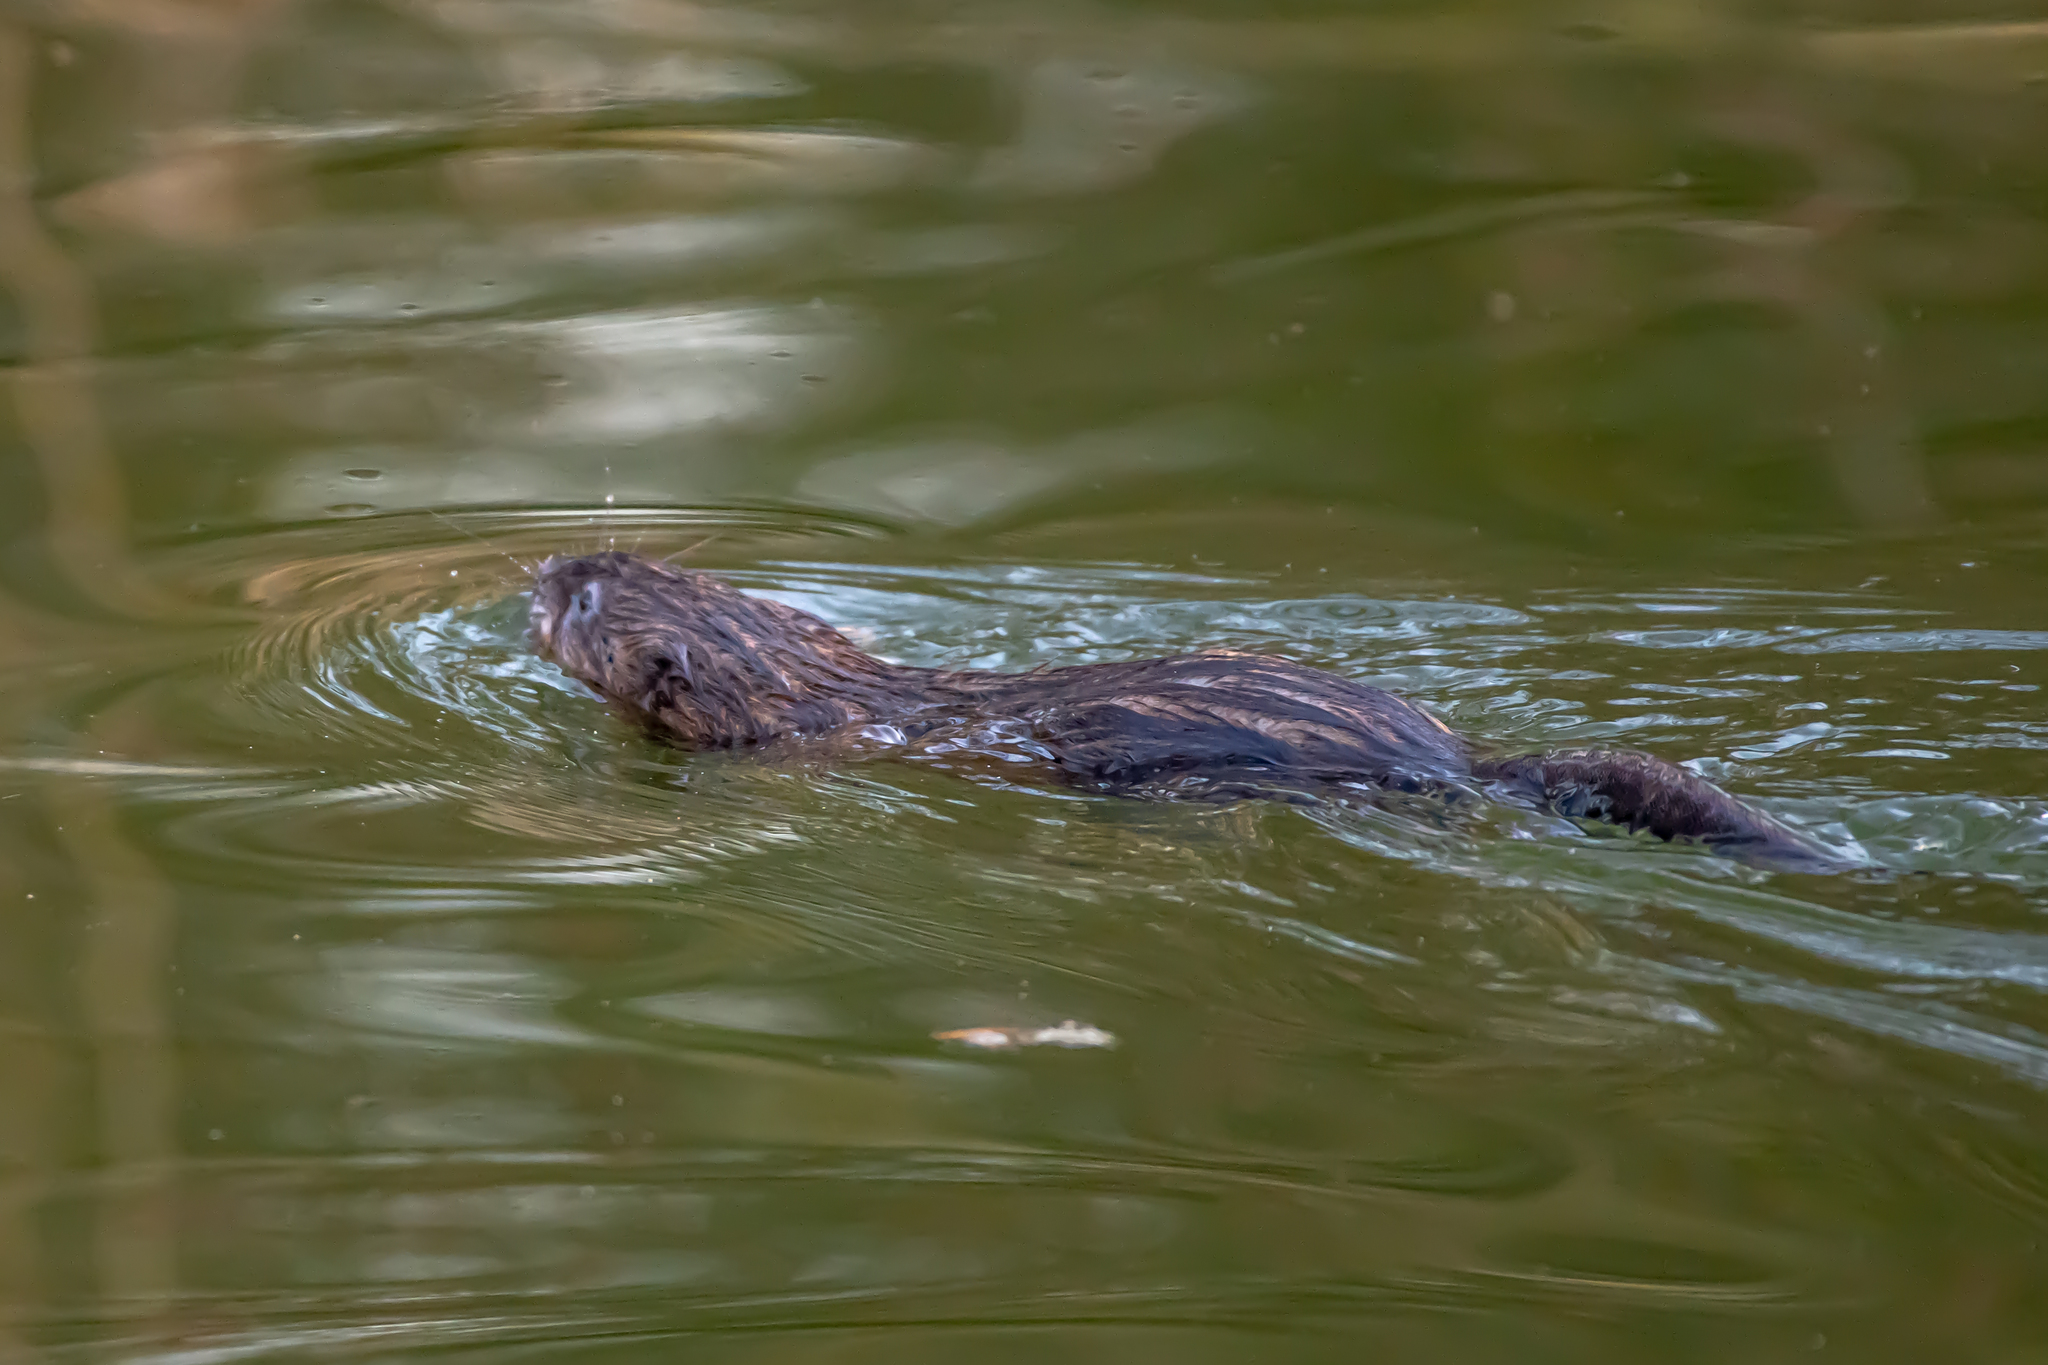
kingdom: Animalia
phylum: Chordata
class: Mammalia
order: Rodentia
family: Cricetidae
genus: Ondatra
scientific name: Ondatra zibethicus
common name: Muskrat
